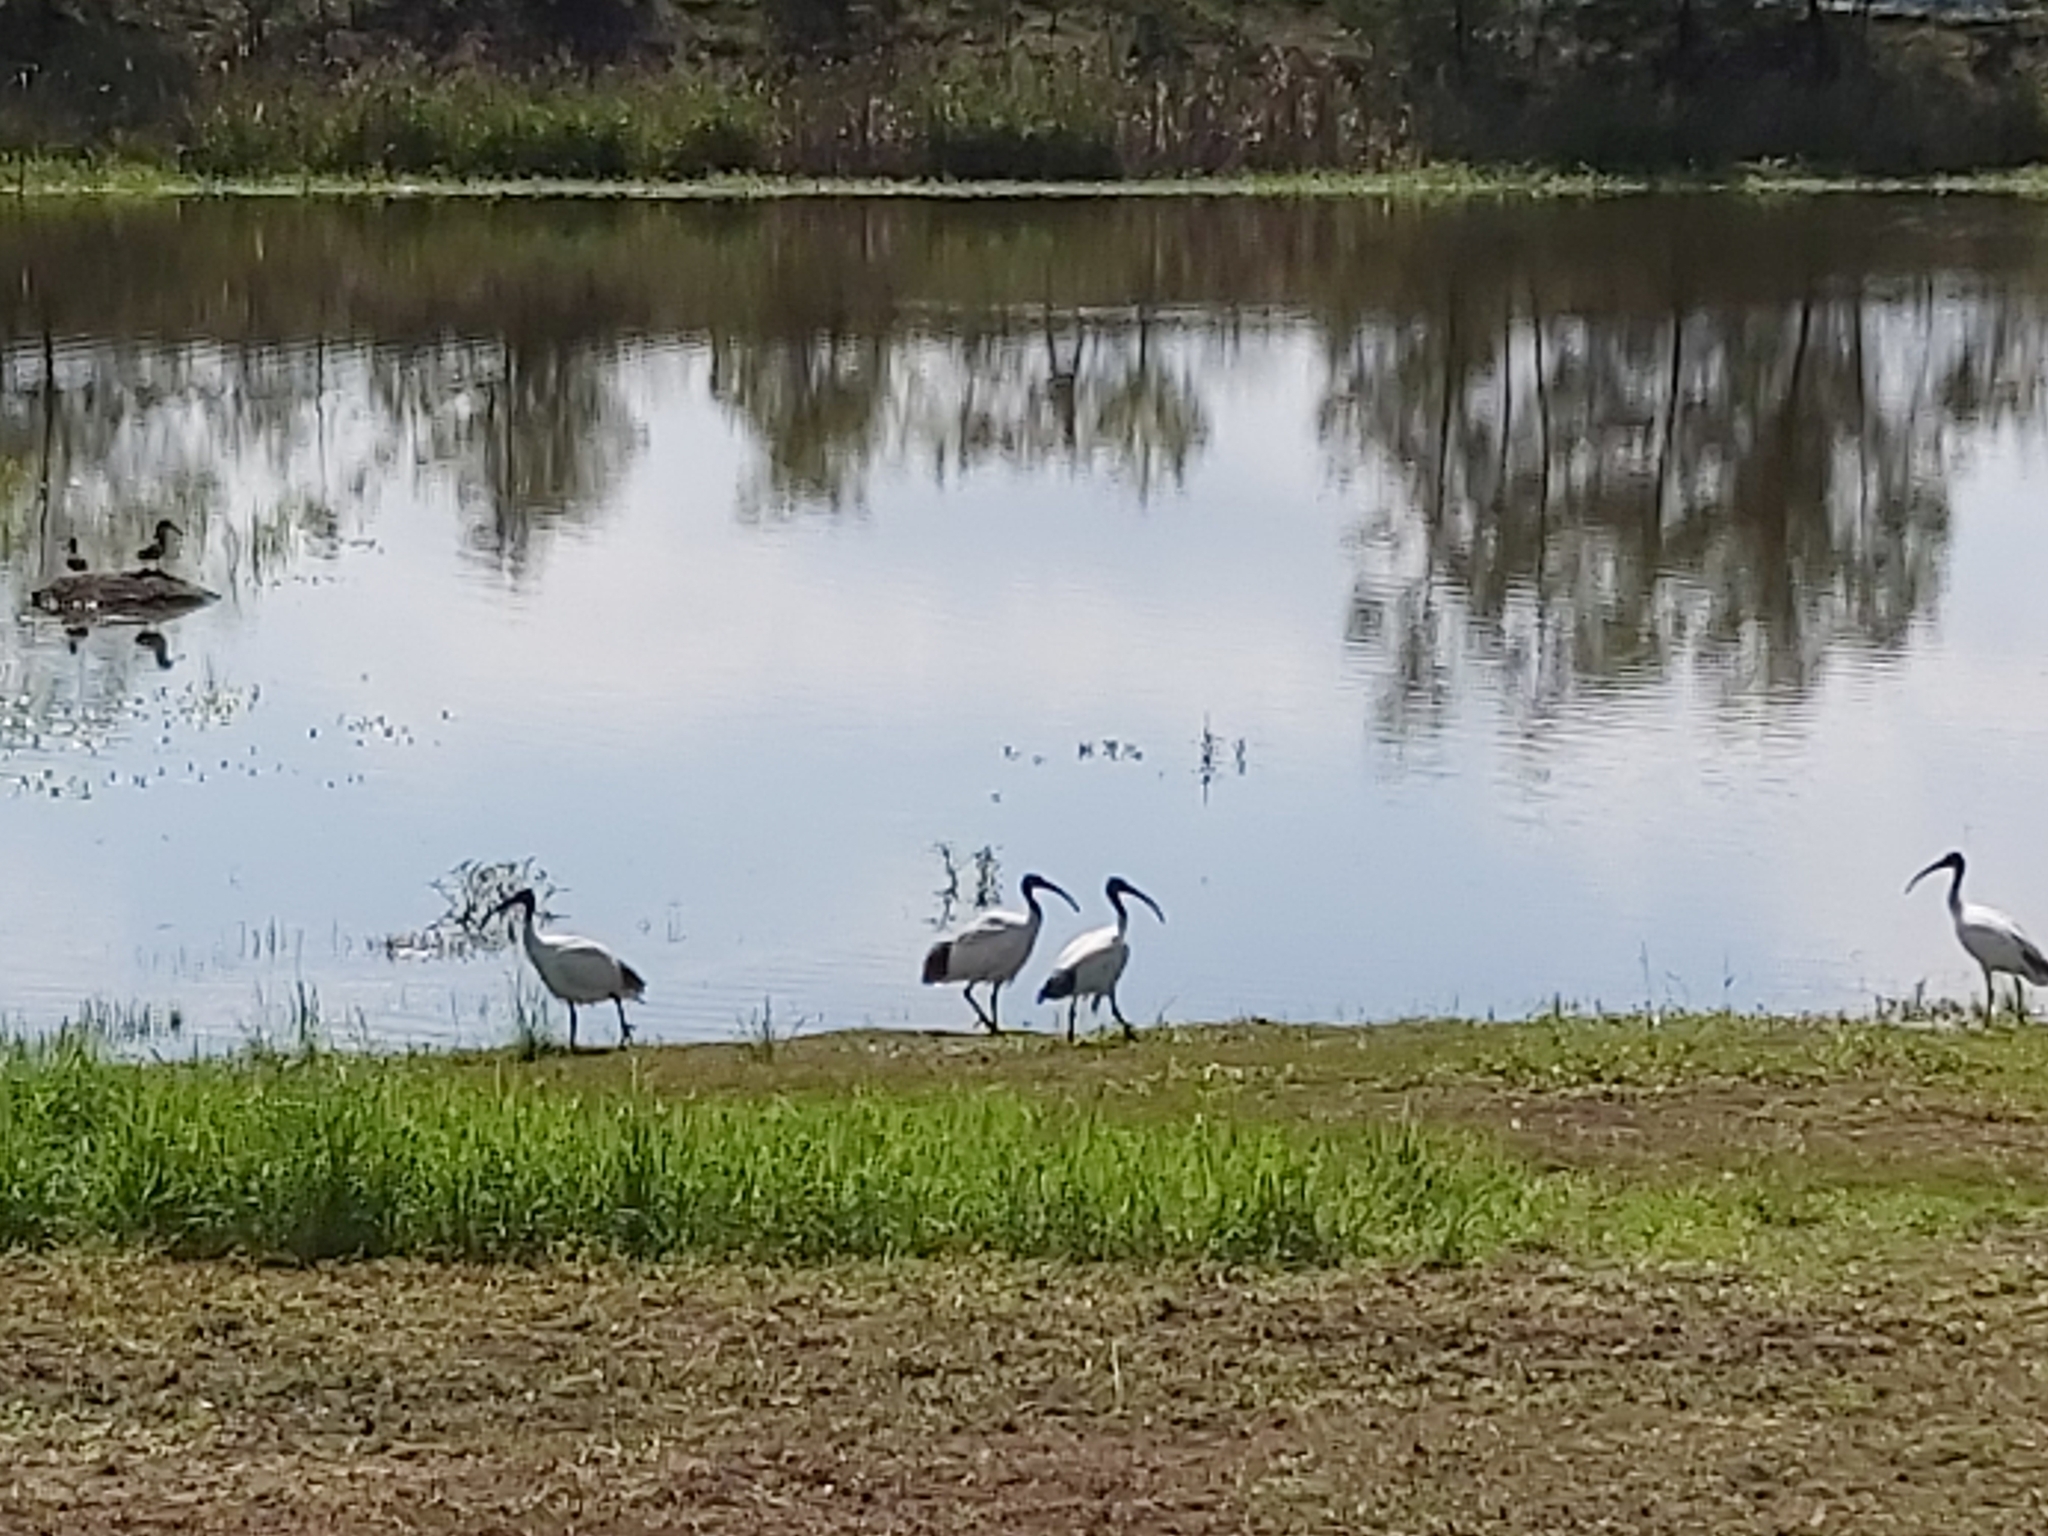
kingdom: Animalia
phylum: Chordata
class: Aves
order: Pelecaniformes
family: Threskiornithidae
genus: Threskiornis
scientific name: Threskiornis molucca
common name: Australian white ibis
